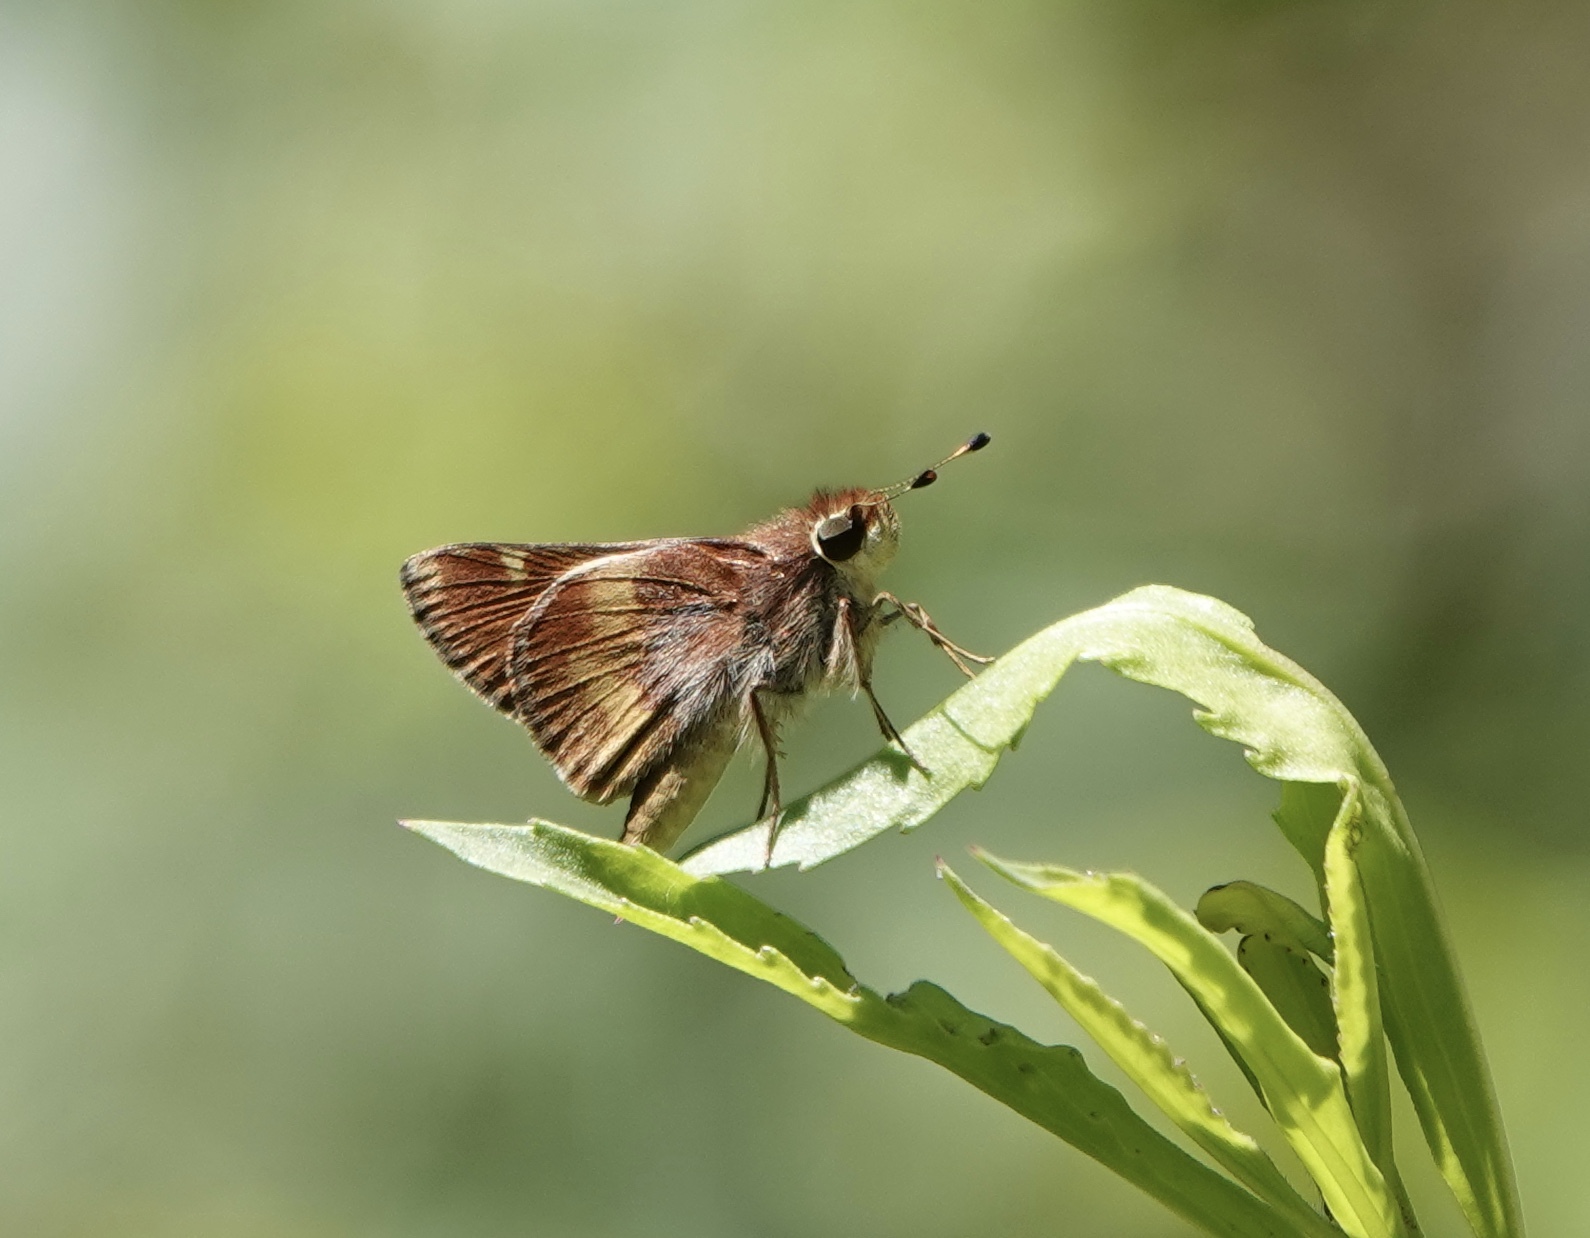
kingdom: Animalia
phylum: Arthropoda
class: Insecta
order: Lepidoptera
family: Hesperiidae
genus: Lon
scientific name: Lon melane
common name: Umber skipper
